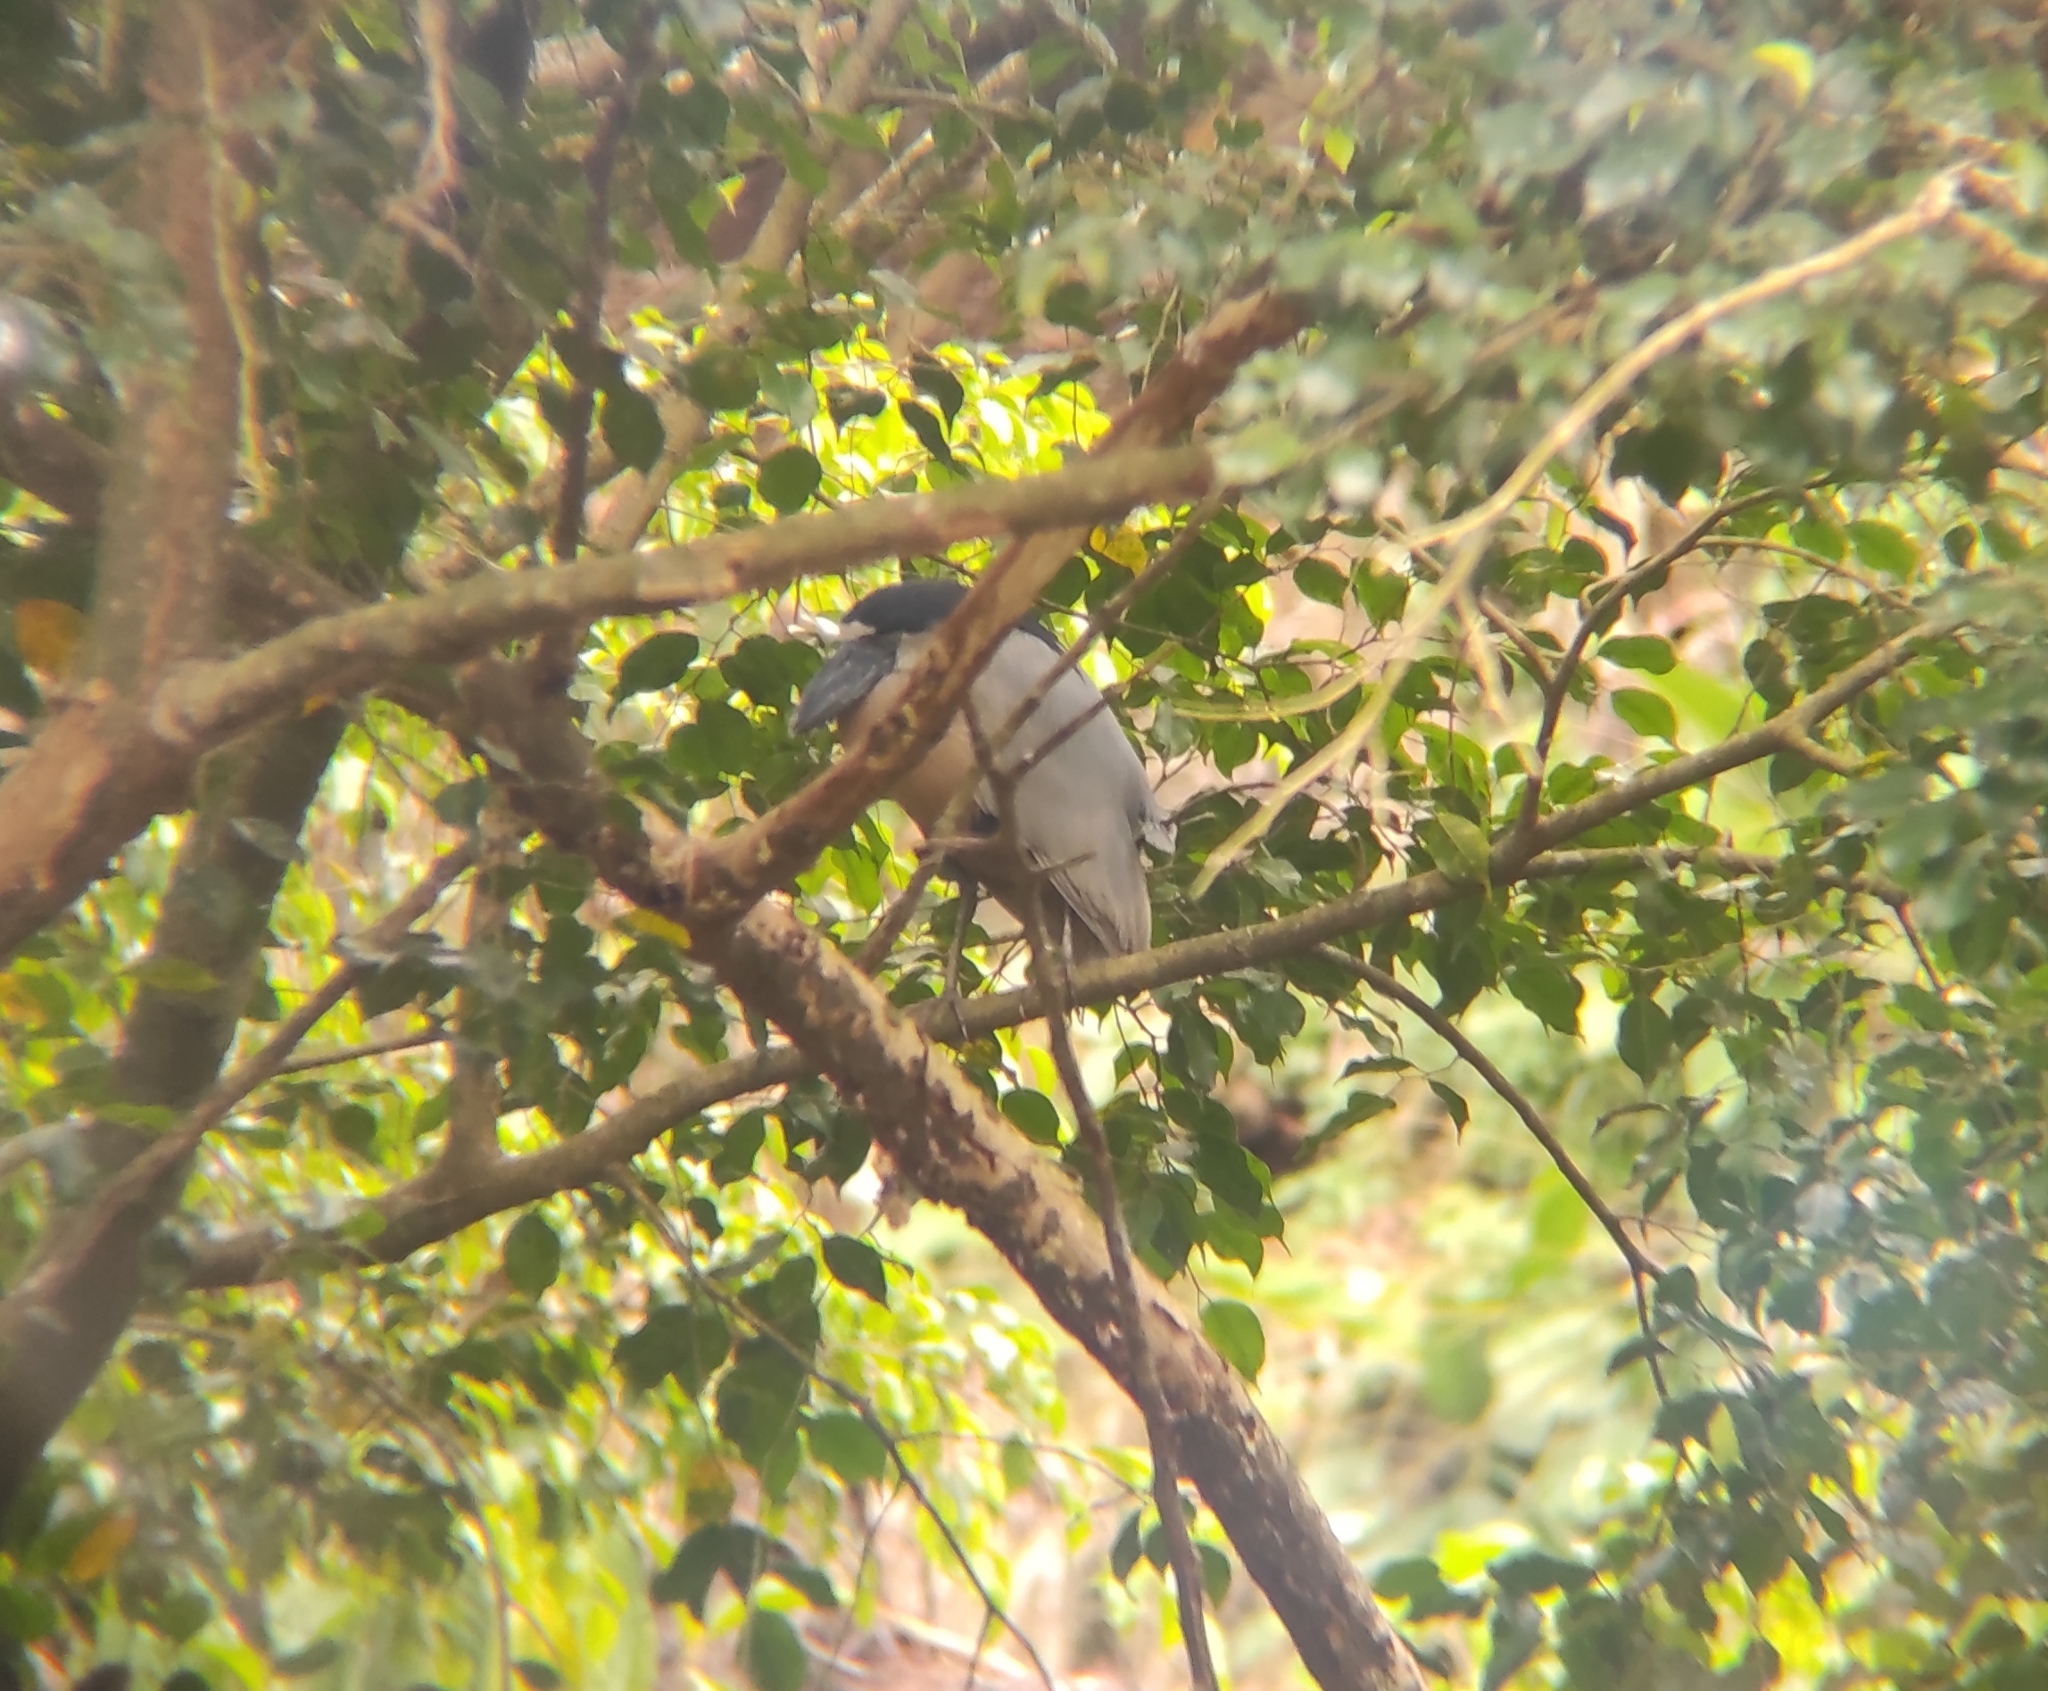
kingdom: Animalia
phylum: Chordata
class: Aves
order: Pelecaniformes
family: Ardeidae
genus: Cochlearius
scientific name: Cochlearius cochlearius
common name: Boat-billed heron
